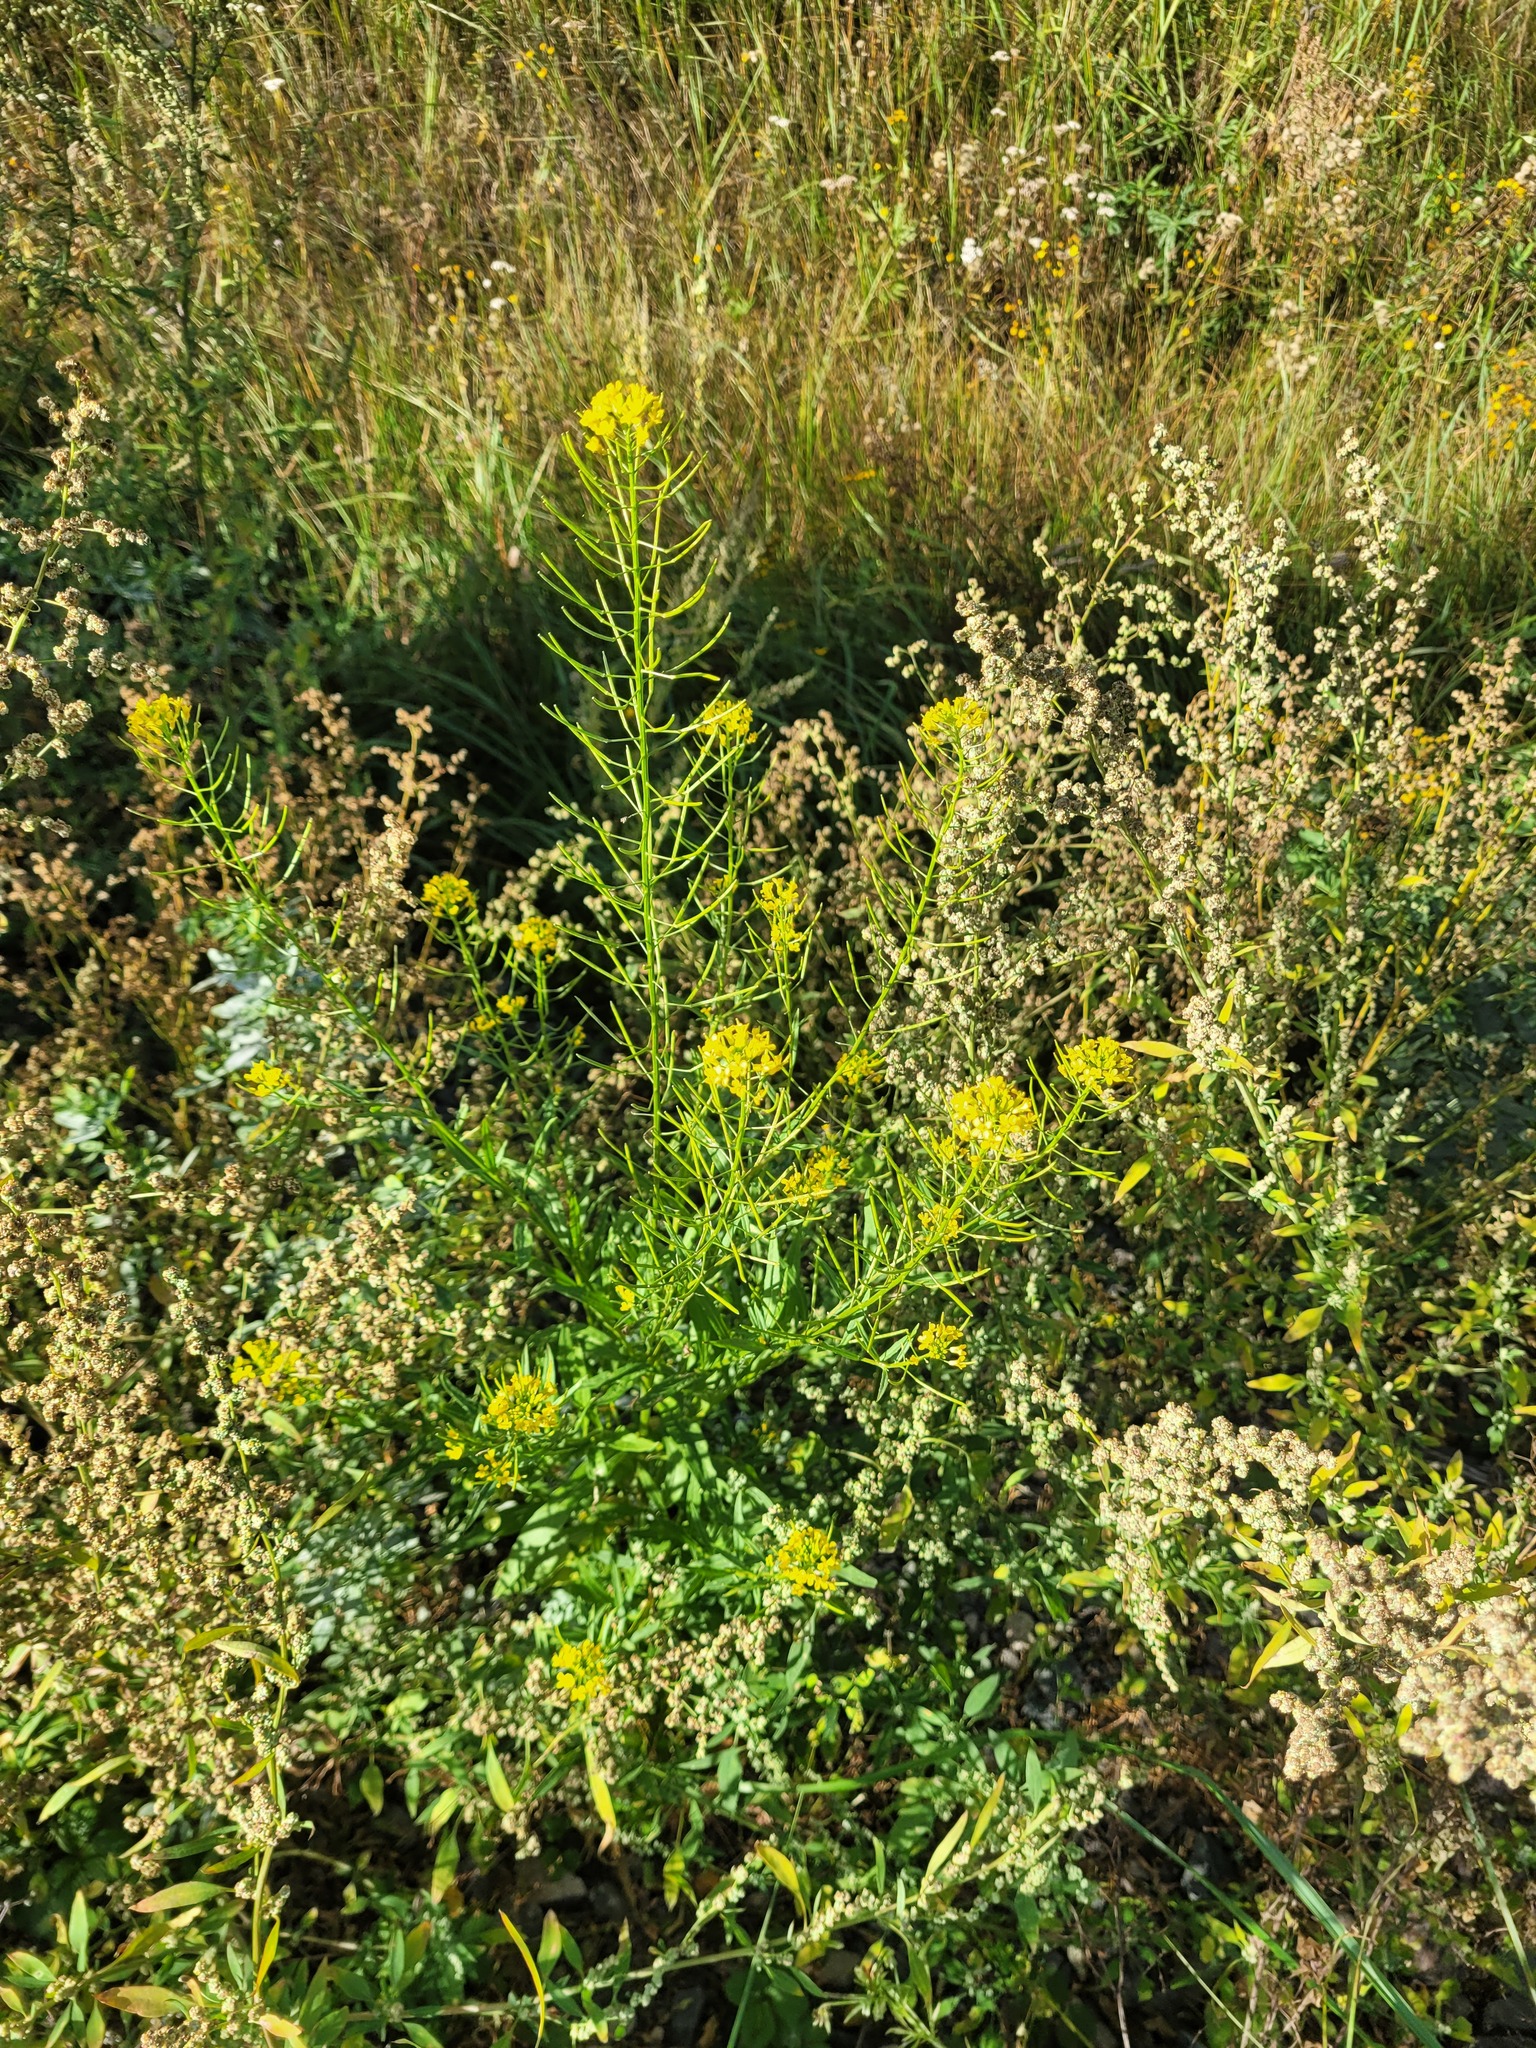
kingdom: Plantae
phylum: Tracheophyta
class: Magnoliopsida
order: Brassicales
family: Brassicaceae
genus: Erysimum
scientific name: Erysimum cheiranthoides
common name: Treacle mustard
